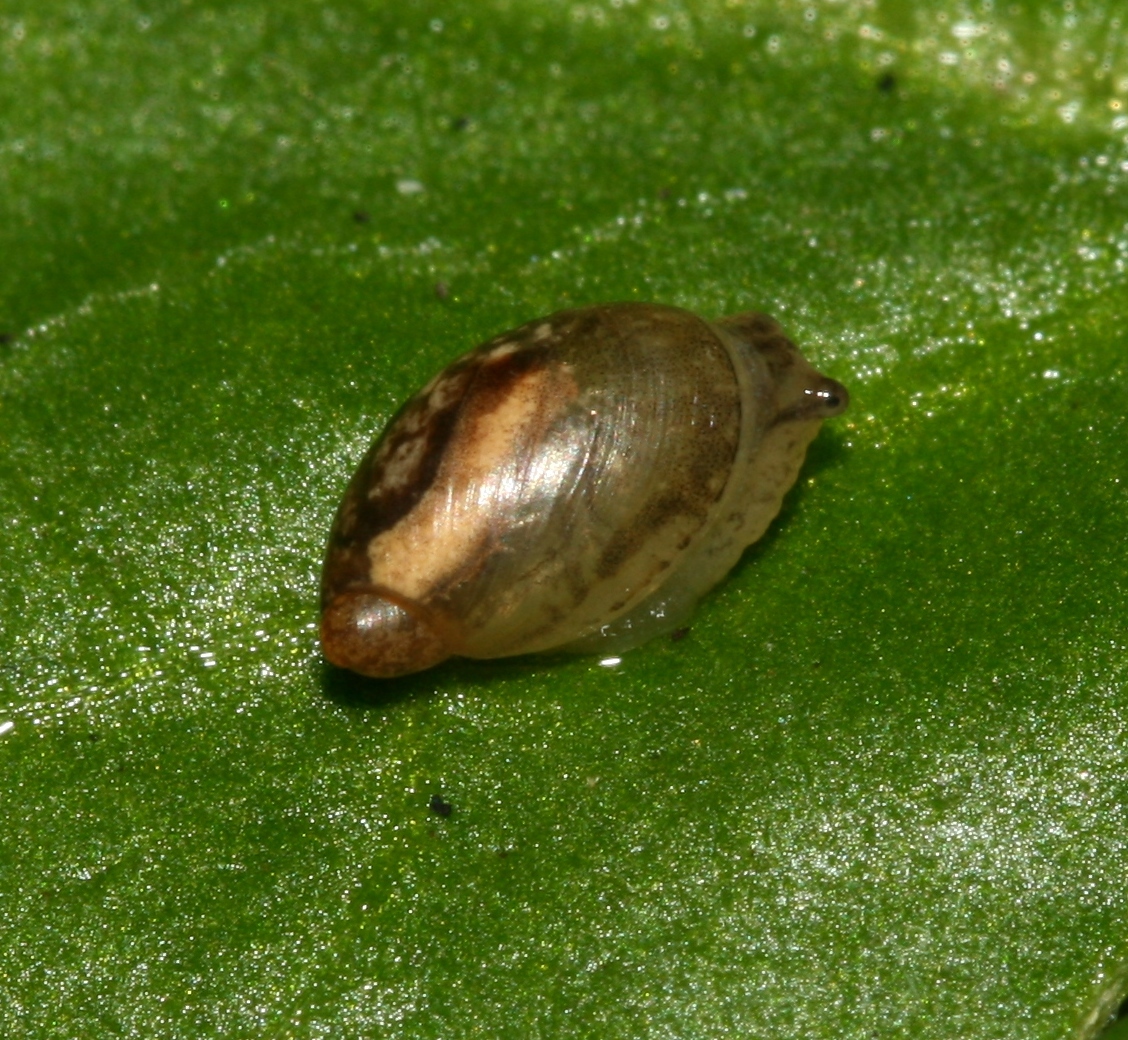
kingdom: Animalia
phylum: Mollusca
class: Gastropoda
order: Stylommatophora
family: Succineidae
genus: Succinea
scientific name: Succinea putris
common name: European ambersnail
